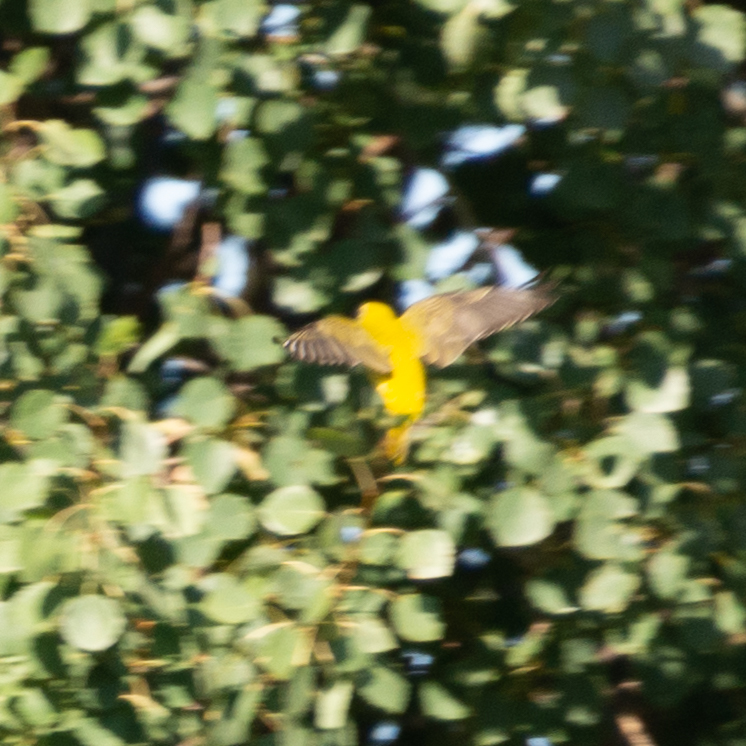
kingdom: Animalia
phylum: Chordata
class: Aves
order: Passeriformes
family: Oriolidae
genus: Oriolus
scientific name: Oriolus oriolus
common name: Eurasian golden oriole
